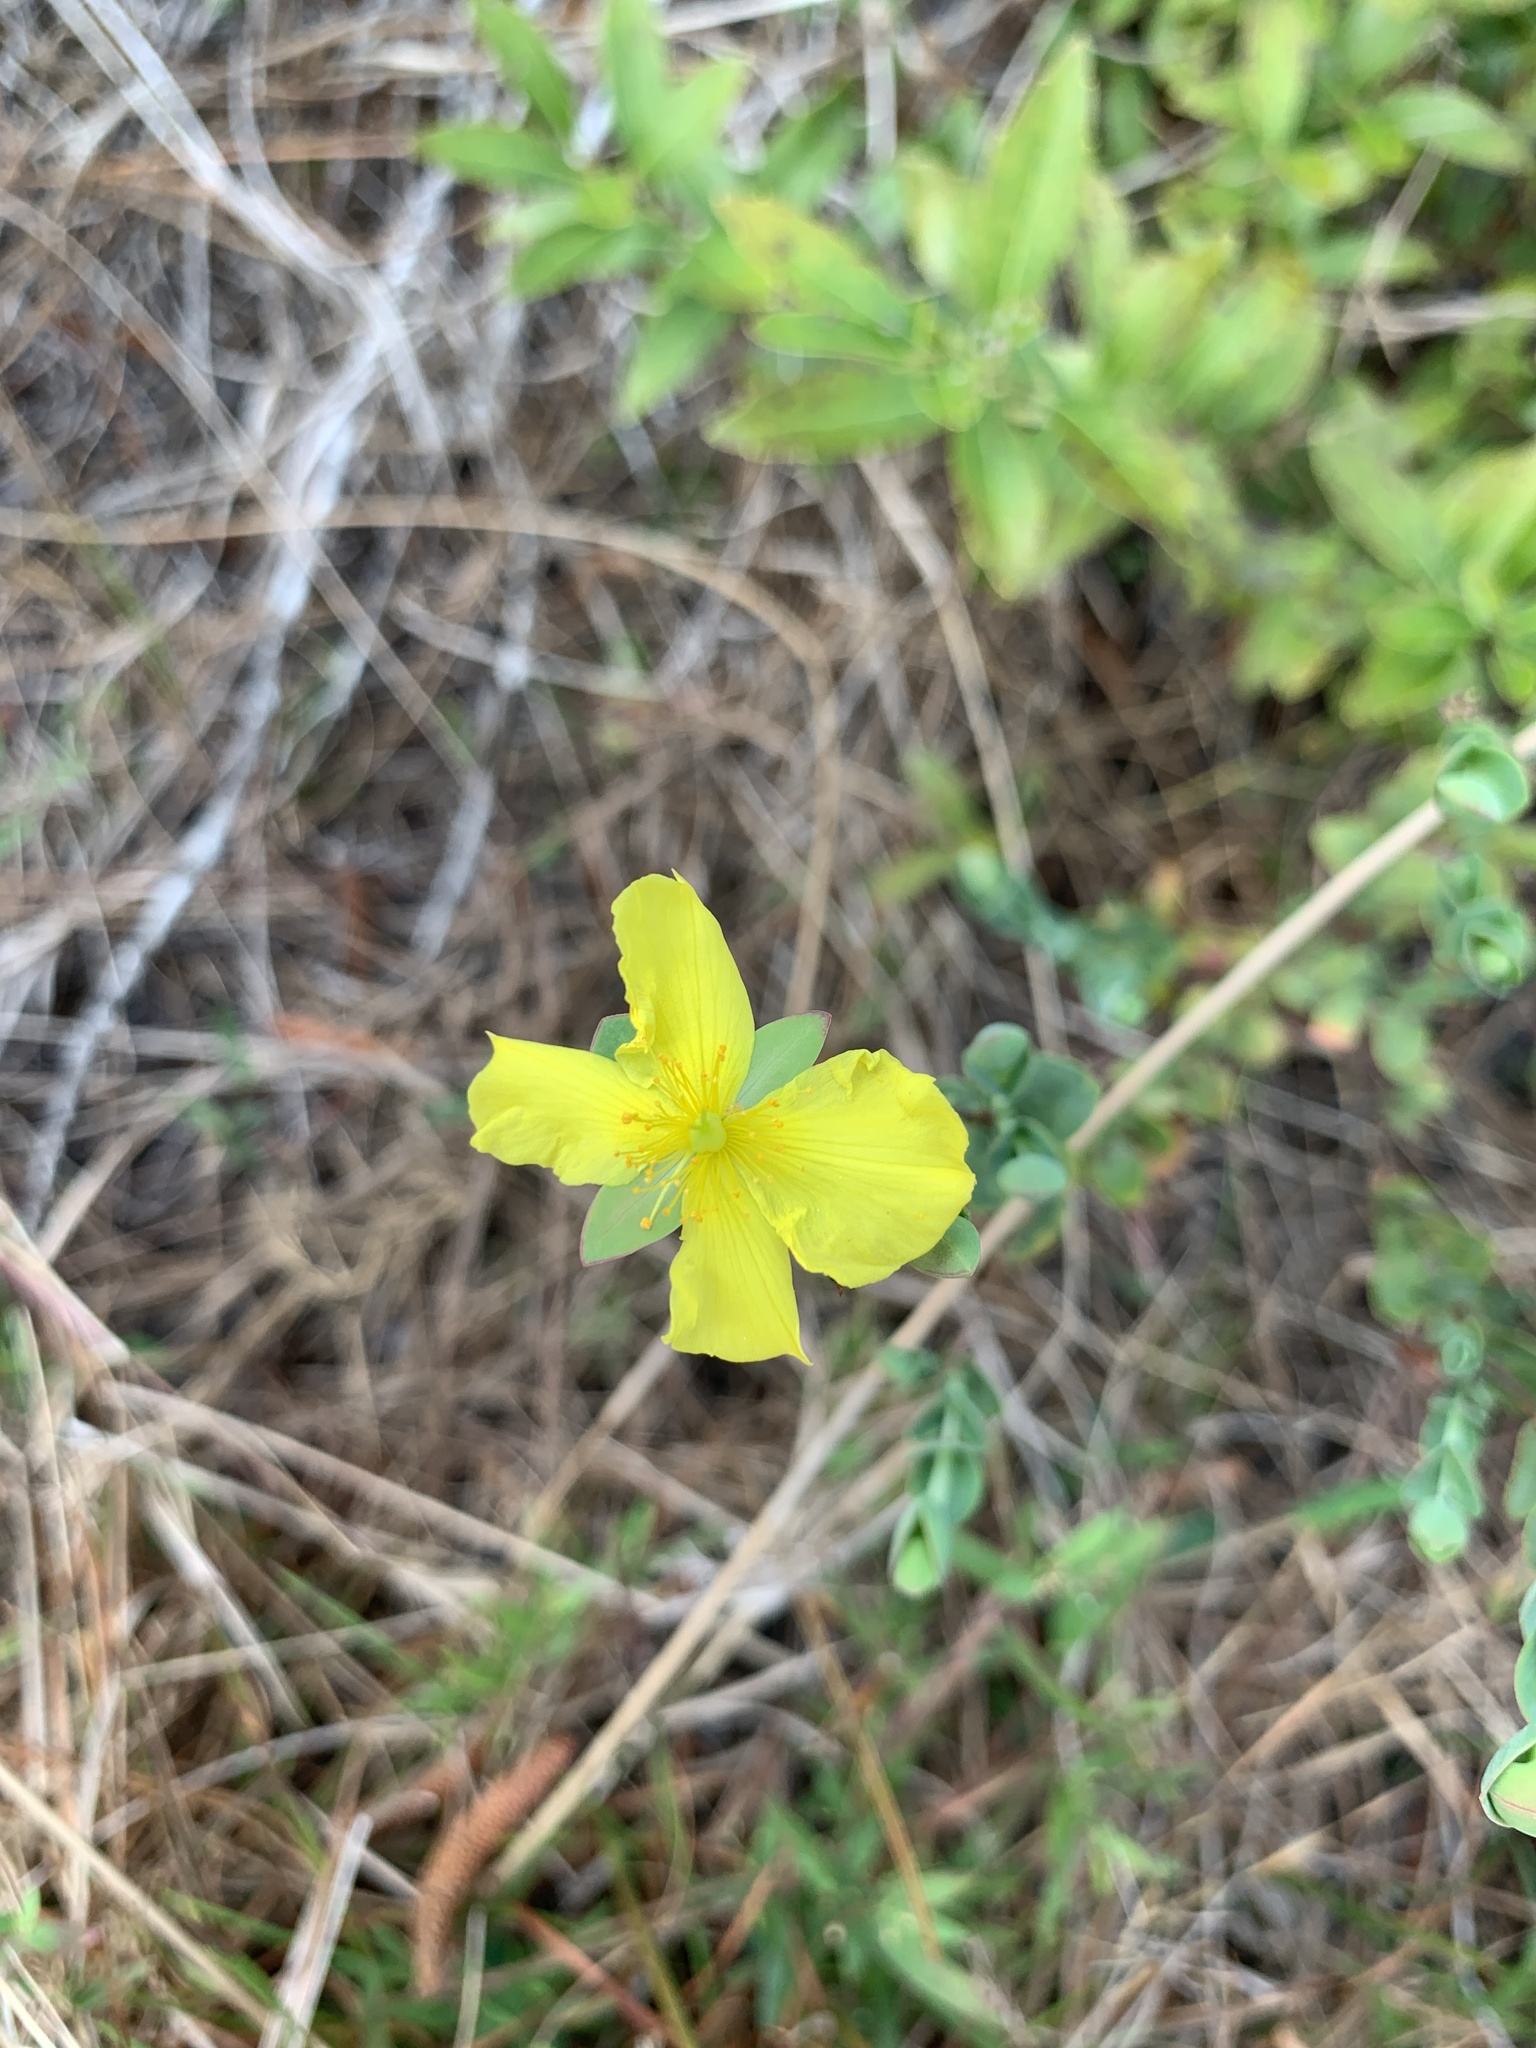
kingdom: Plantae
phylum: Tracheophyta
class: Magnoliopsida
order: Malpighiales
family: Hypericaceae
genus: Hypericum
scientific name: Hypericum tetrapetalum
